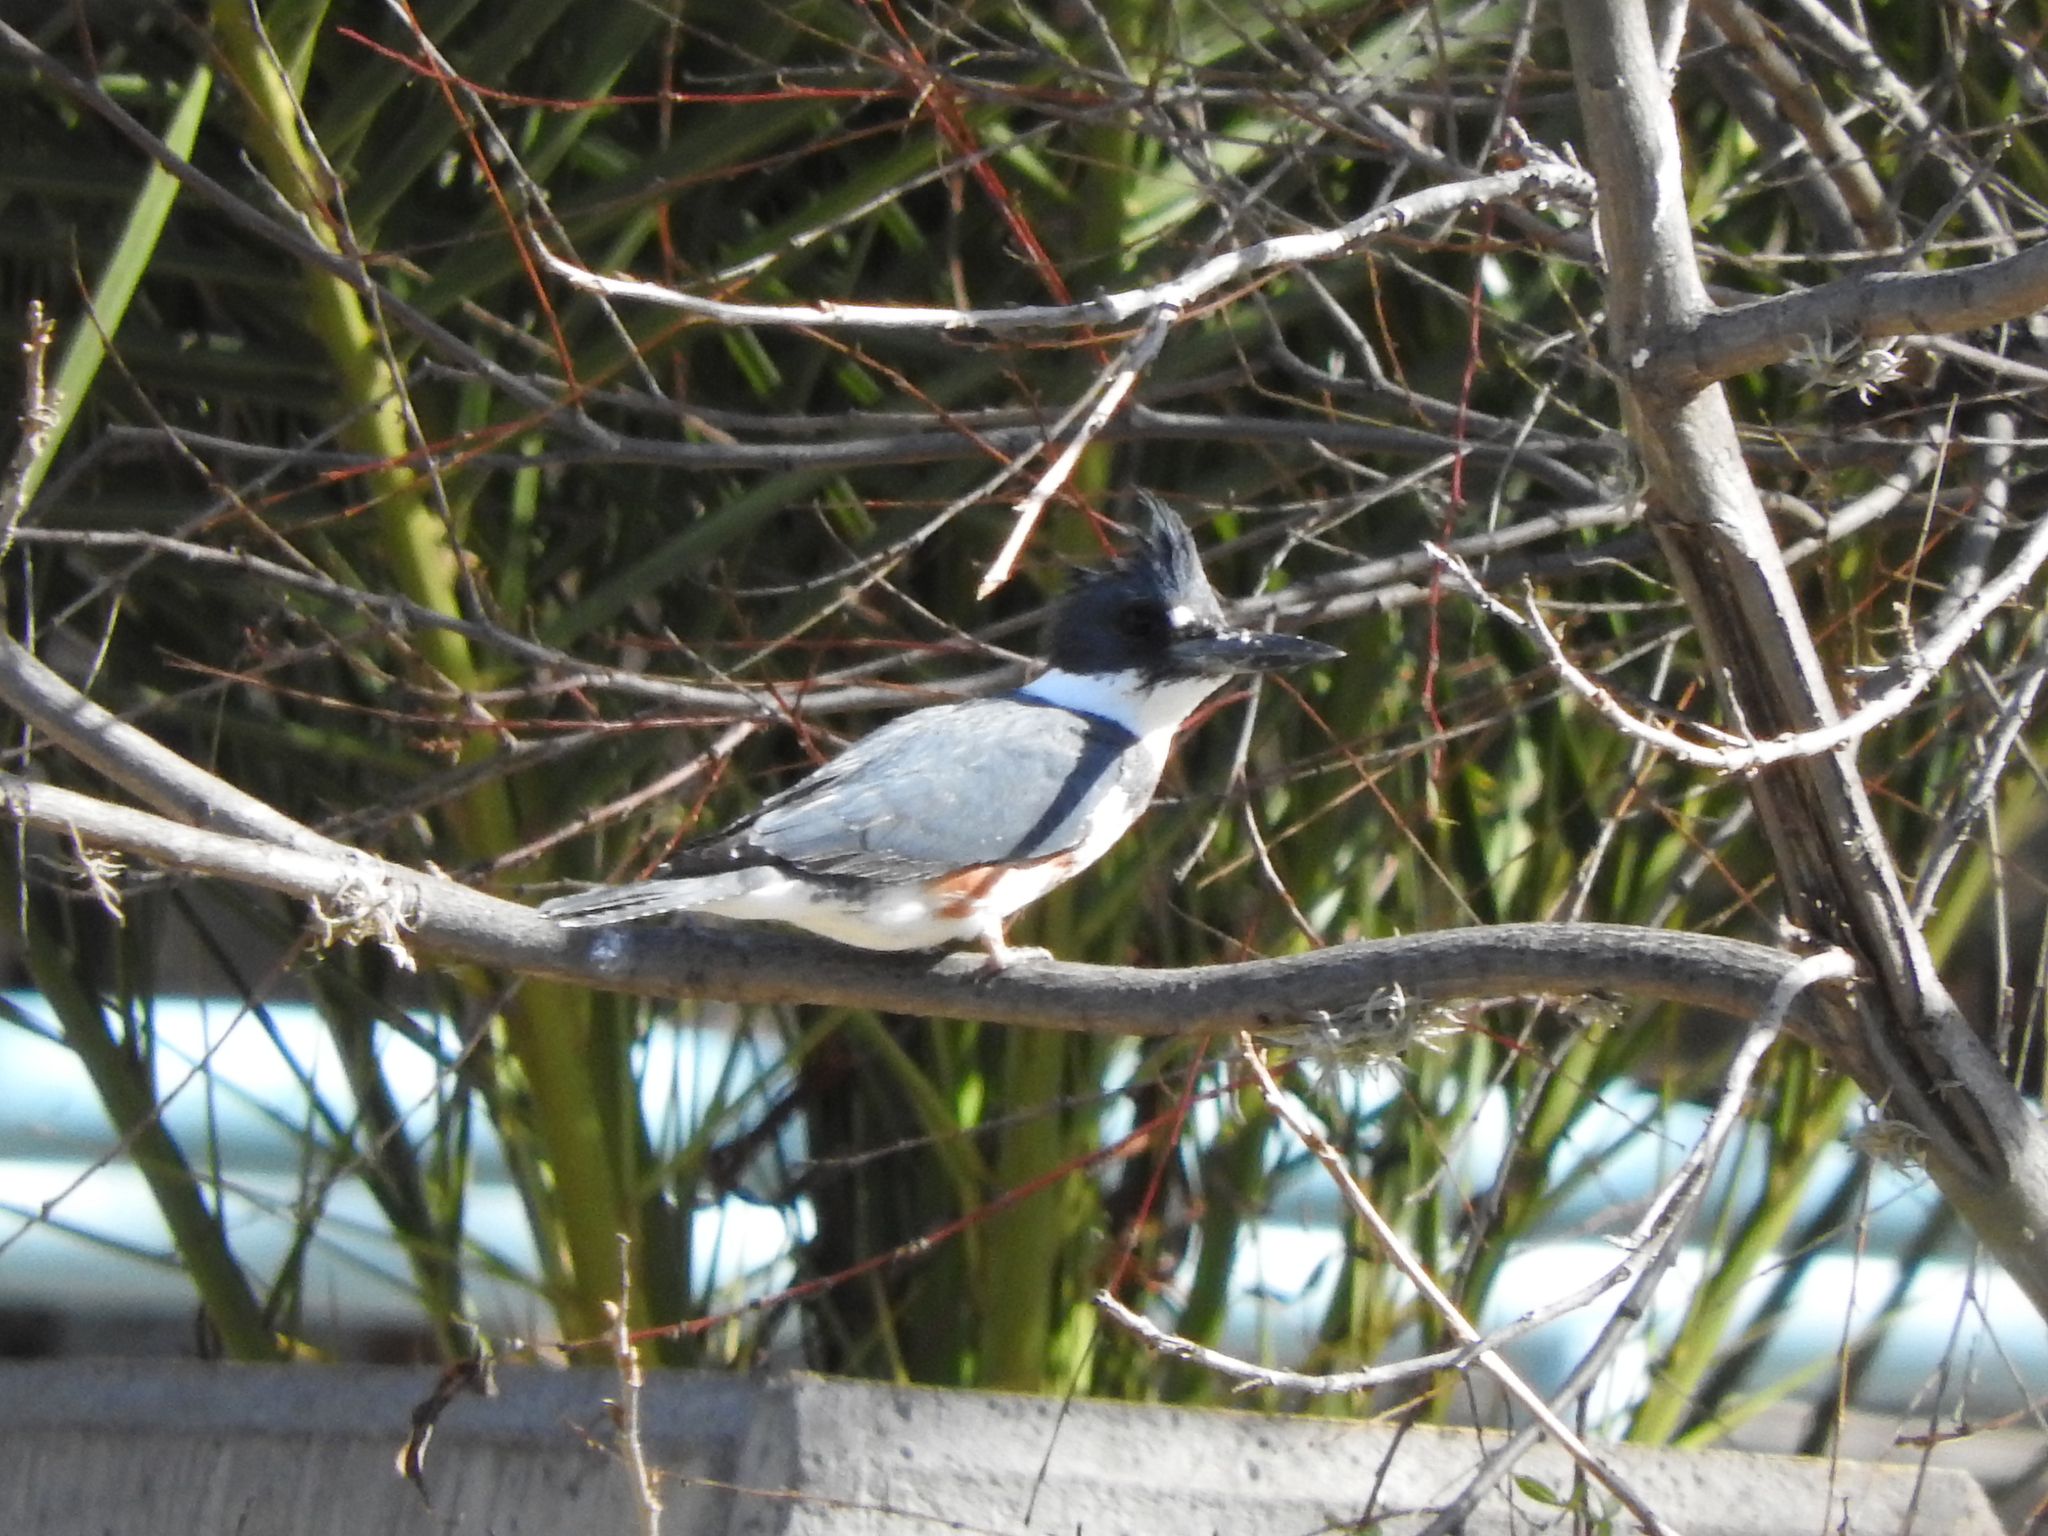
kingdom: Animalia
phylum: Chordata
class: Aves
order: Coraciiformes
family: Alcedinidae
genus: Megaceryle
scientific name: Megaceryle alcyon
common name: Belted kingfisher
